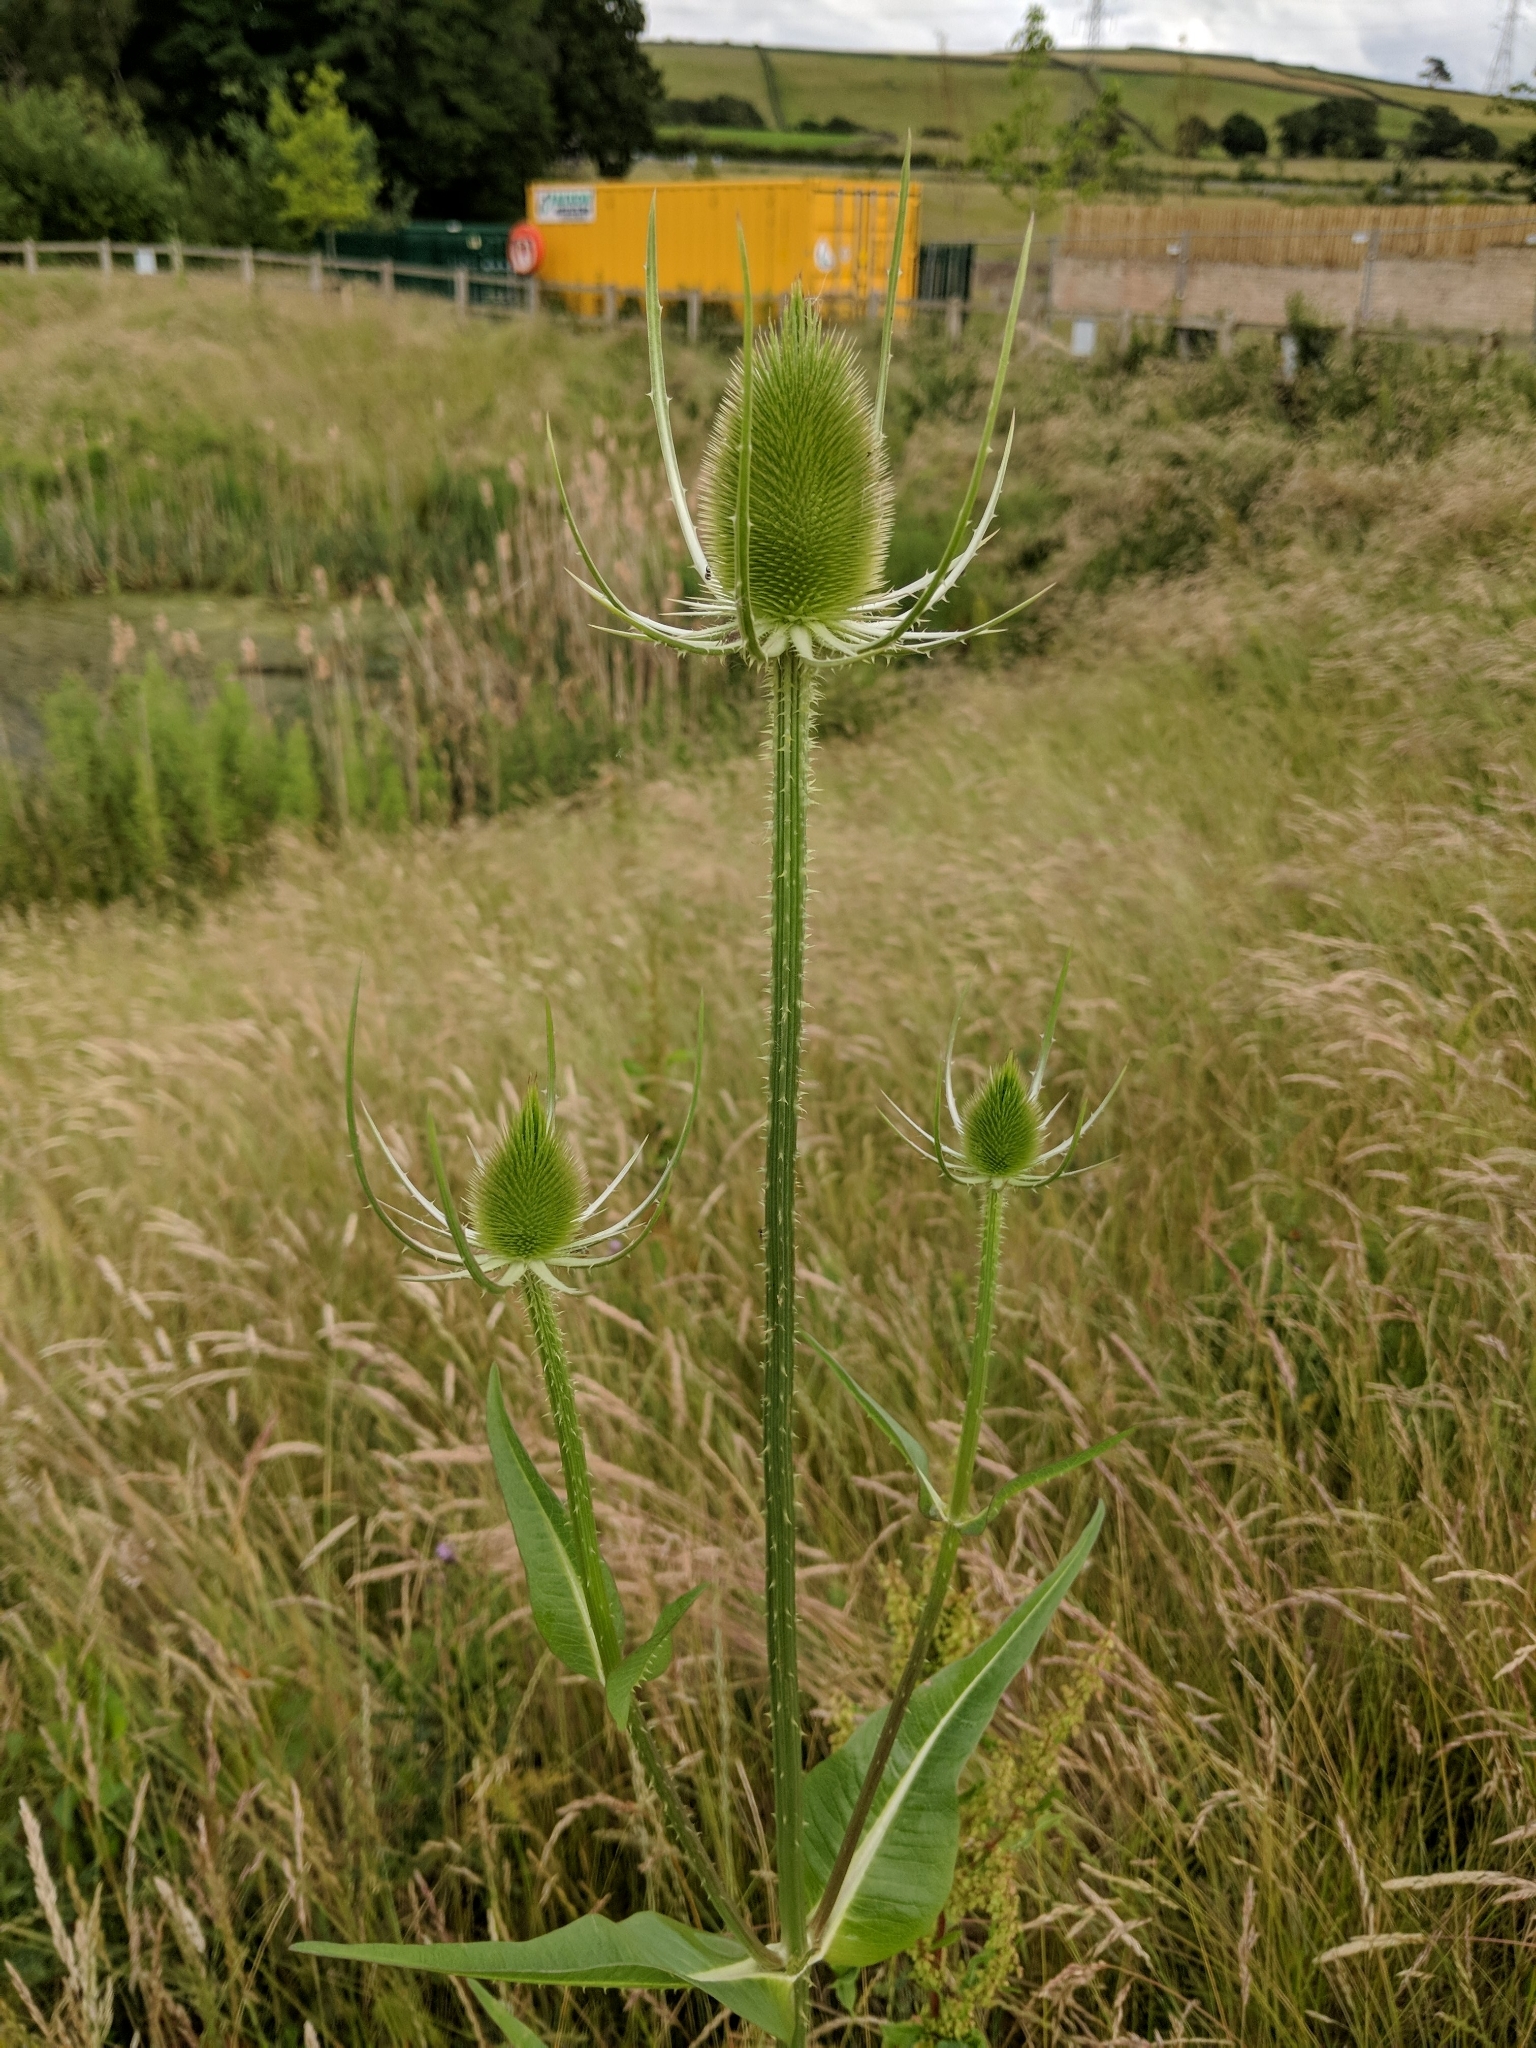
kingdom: Plantae
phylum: Tracheophyta
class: Magnoliopsida
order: Dipsacales
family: Caprifoliaceae
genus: Dipsacus
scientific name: Dipsacus fullonum
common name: Teasel
